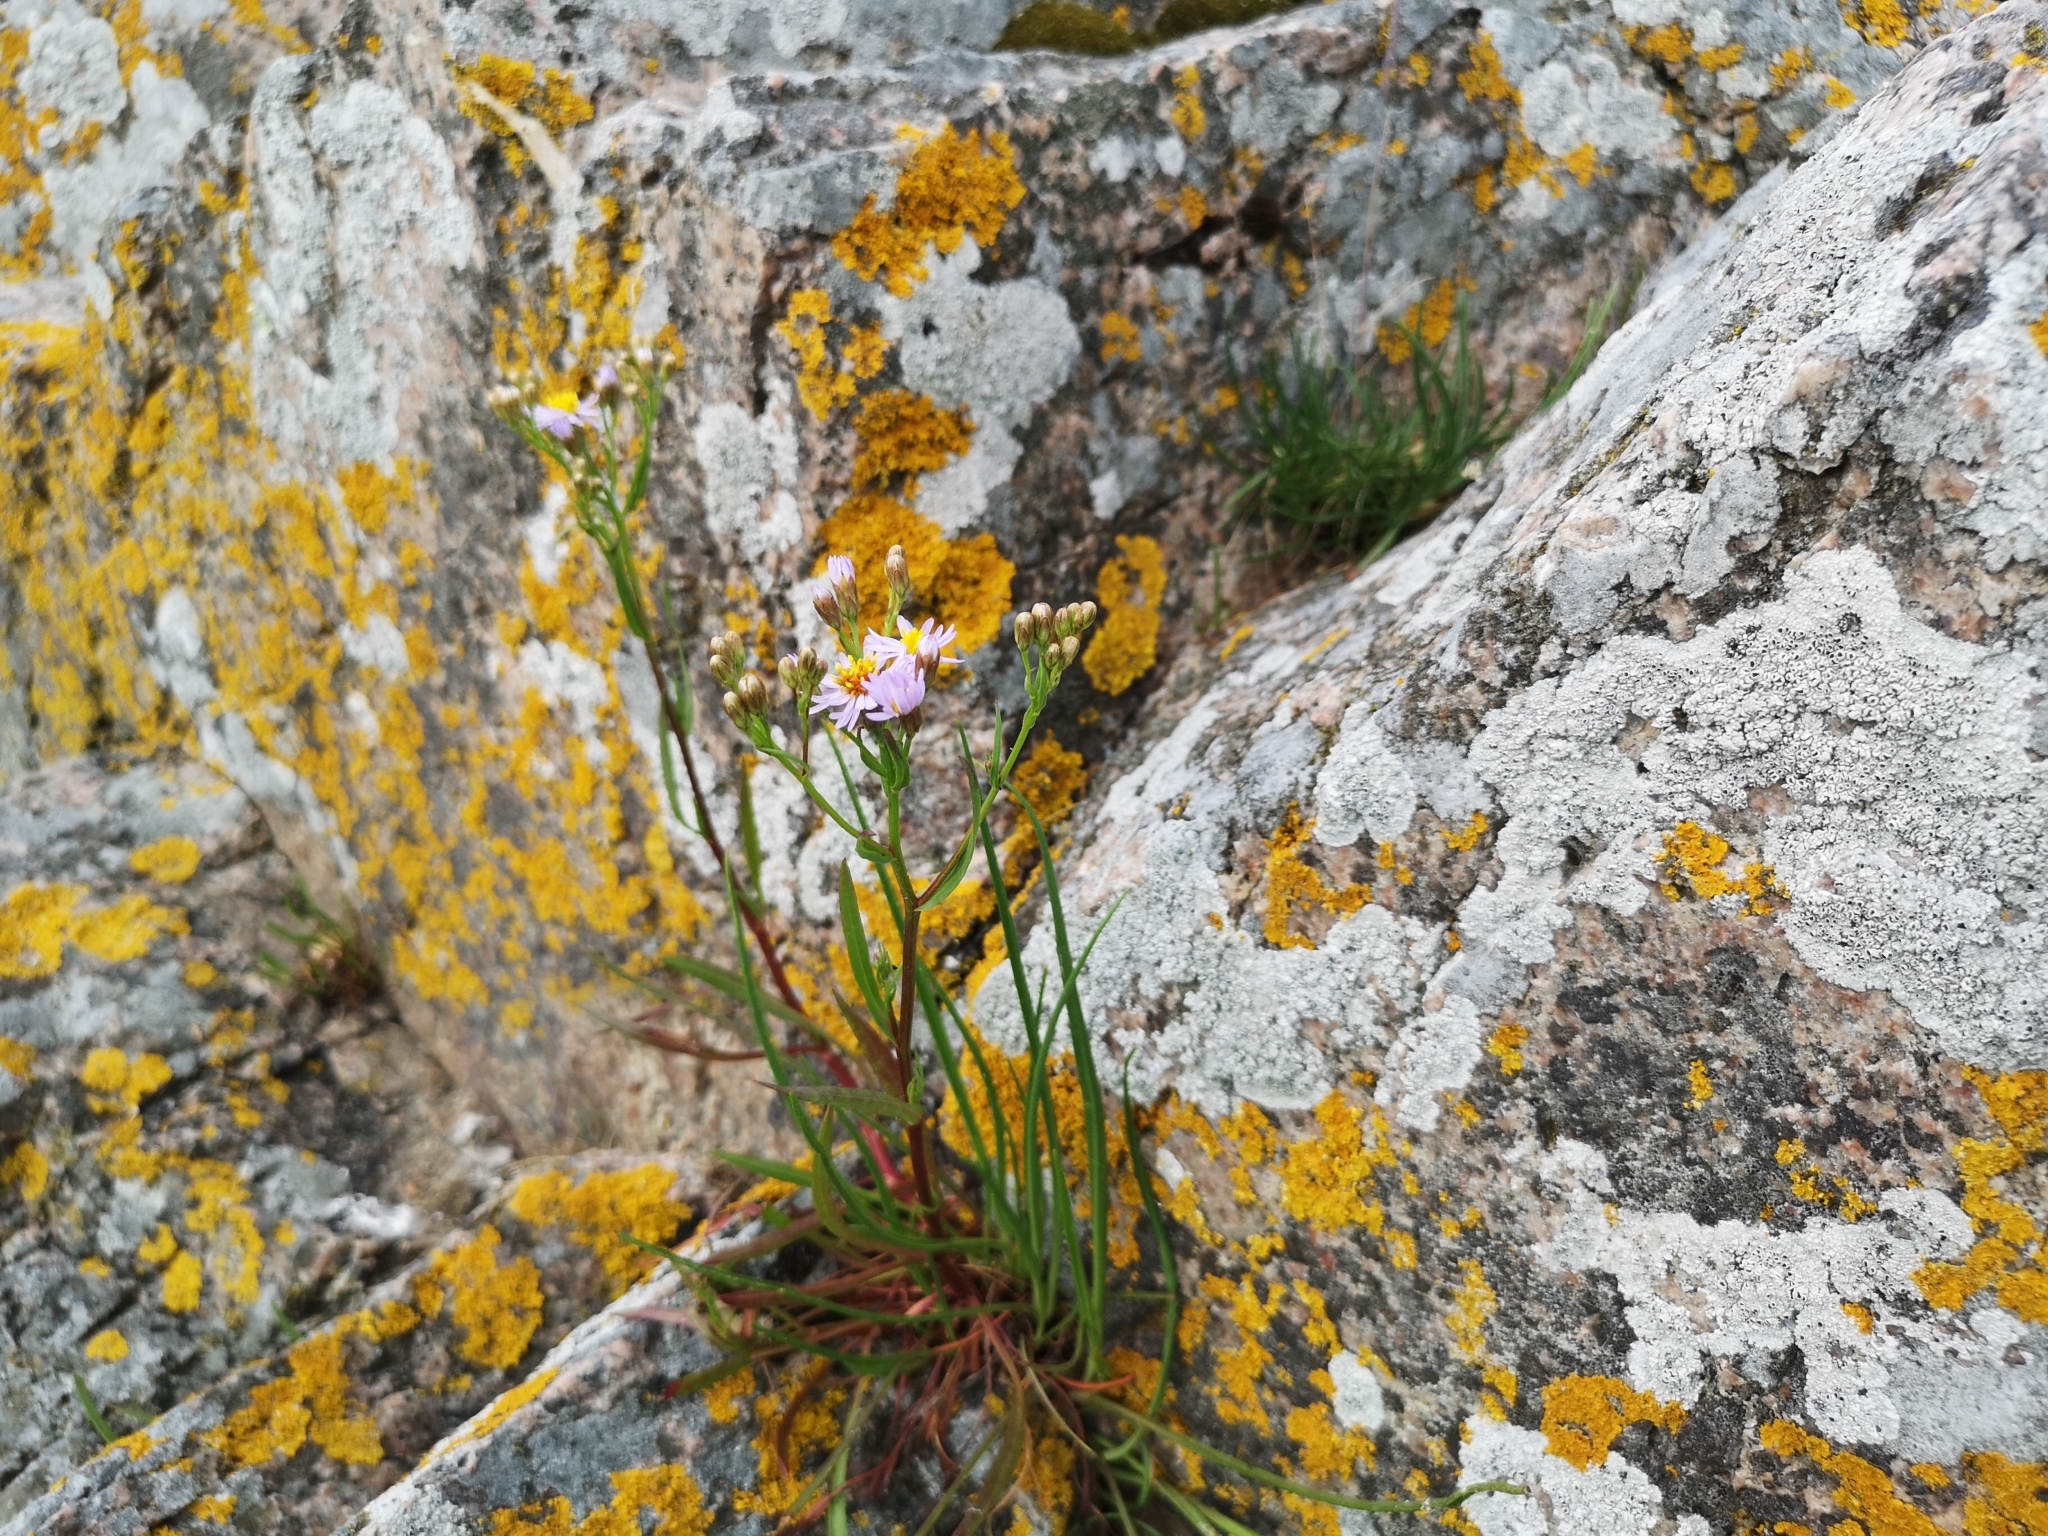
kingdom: Plantae
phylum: Tracheophyta
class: Magnoliopsida
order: Asterales
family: Asteraceae
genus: Tripolium
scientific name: Tripolium pannonicum
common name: Sea aster
